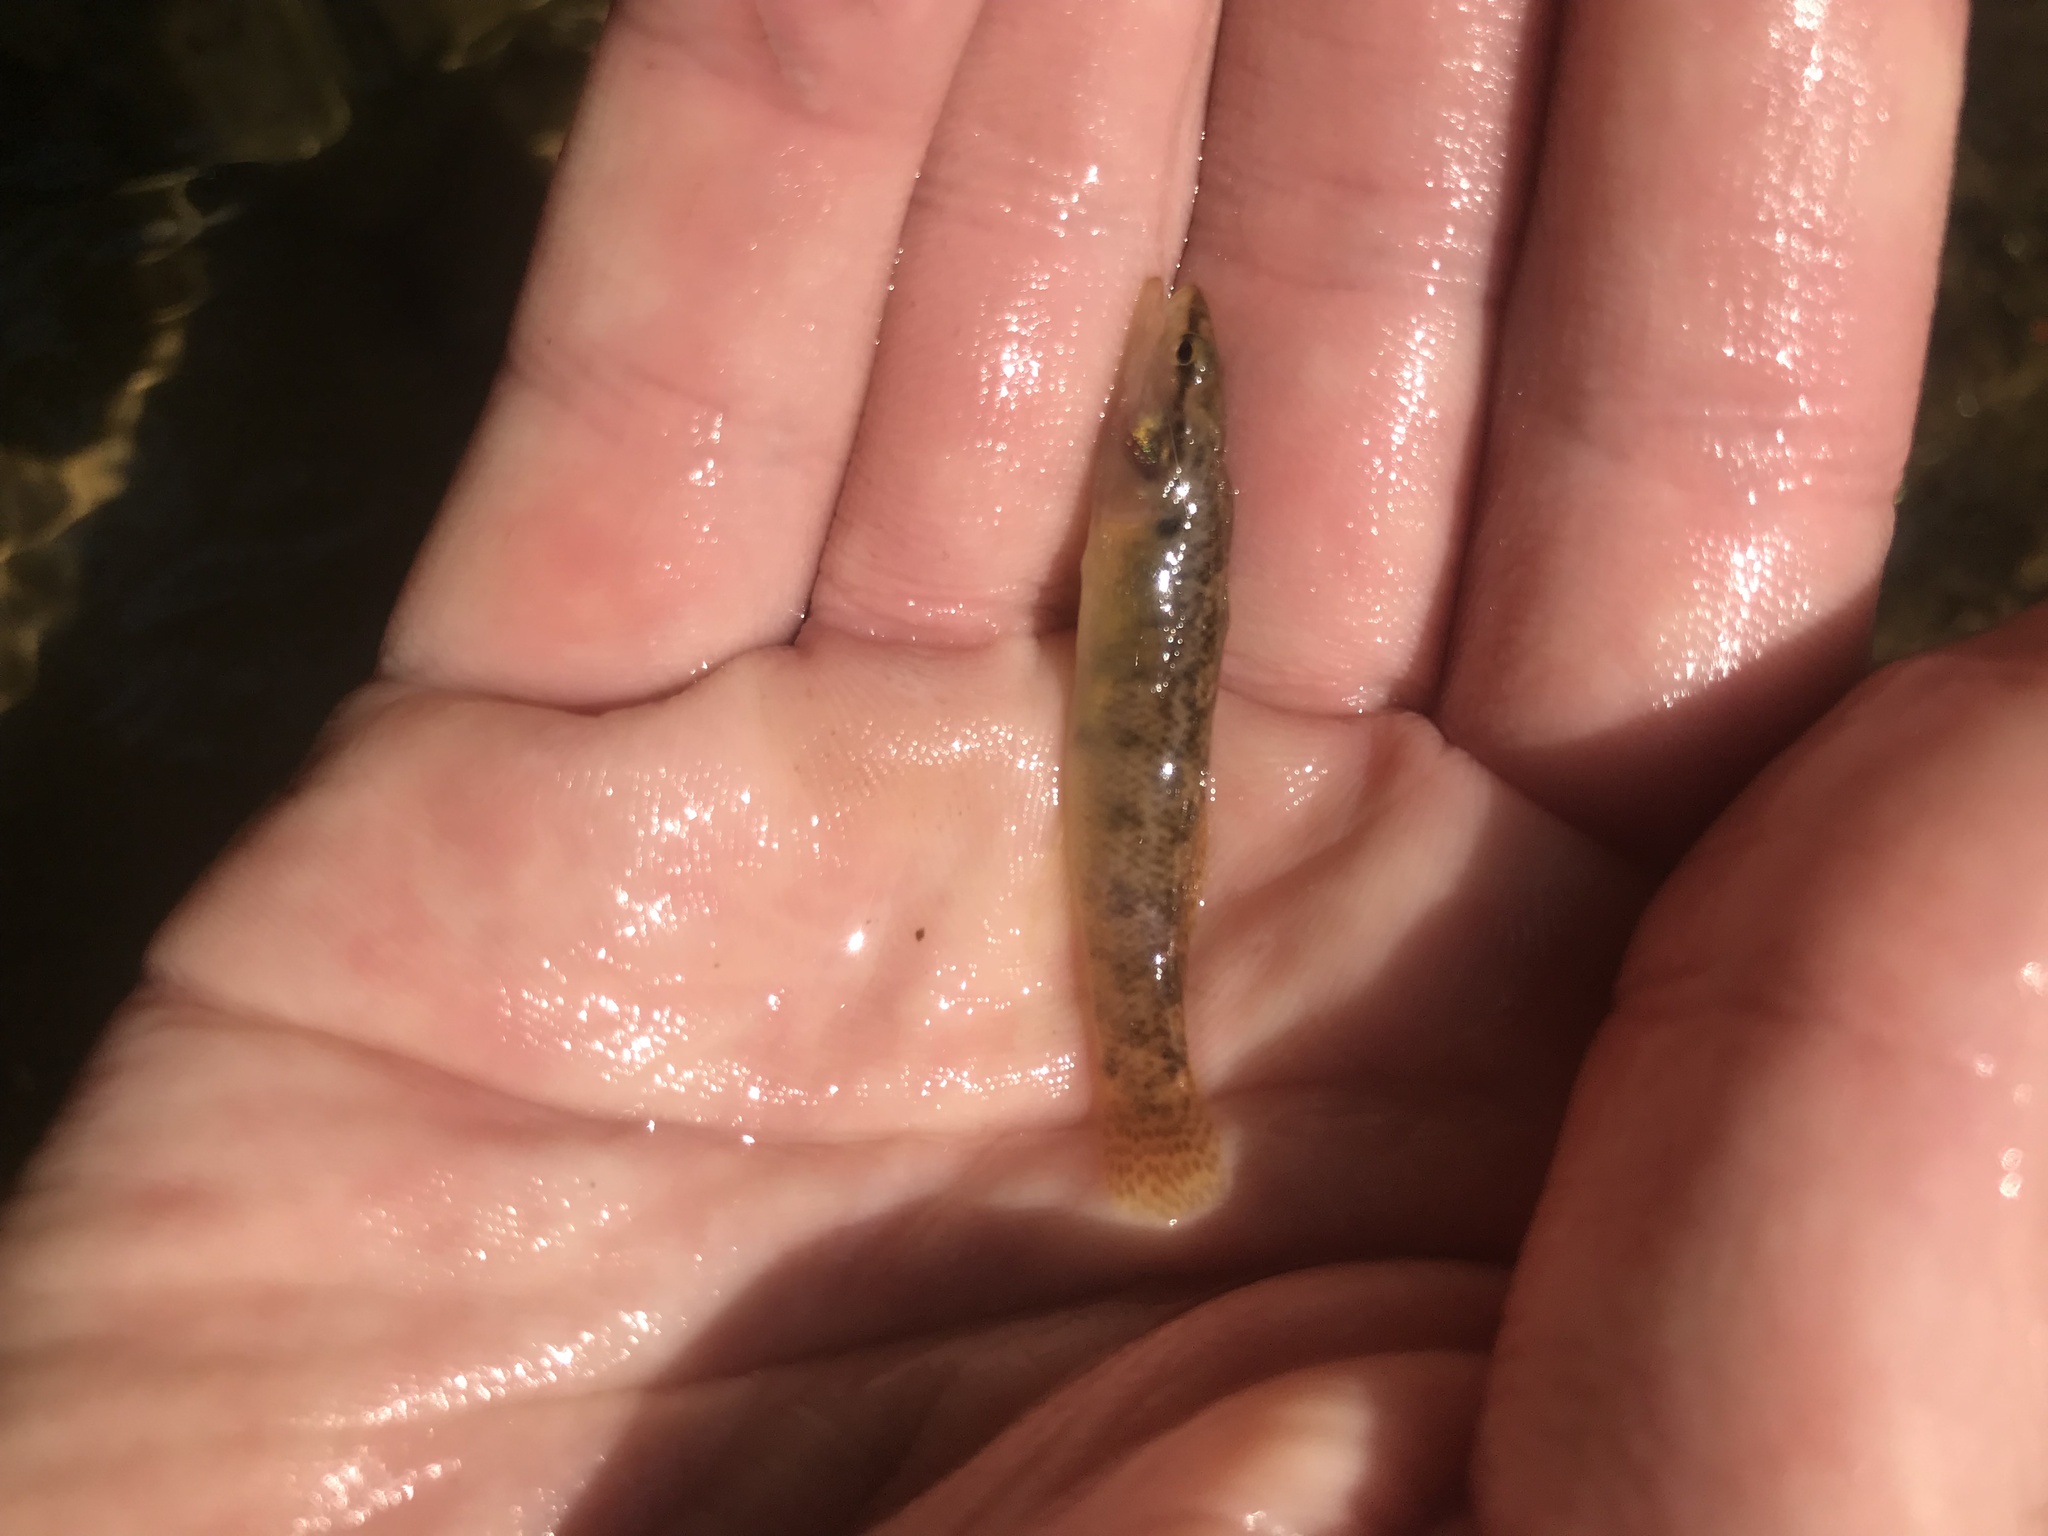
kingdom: Animalia
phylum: Chordata
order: Perciformes
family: Percidae
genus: Etheostoma
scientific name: Etheostoma flabellare
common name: Fantail darter
